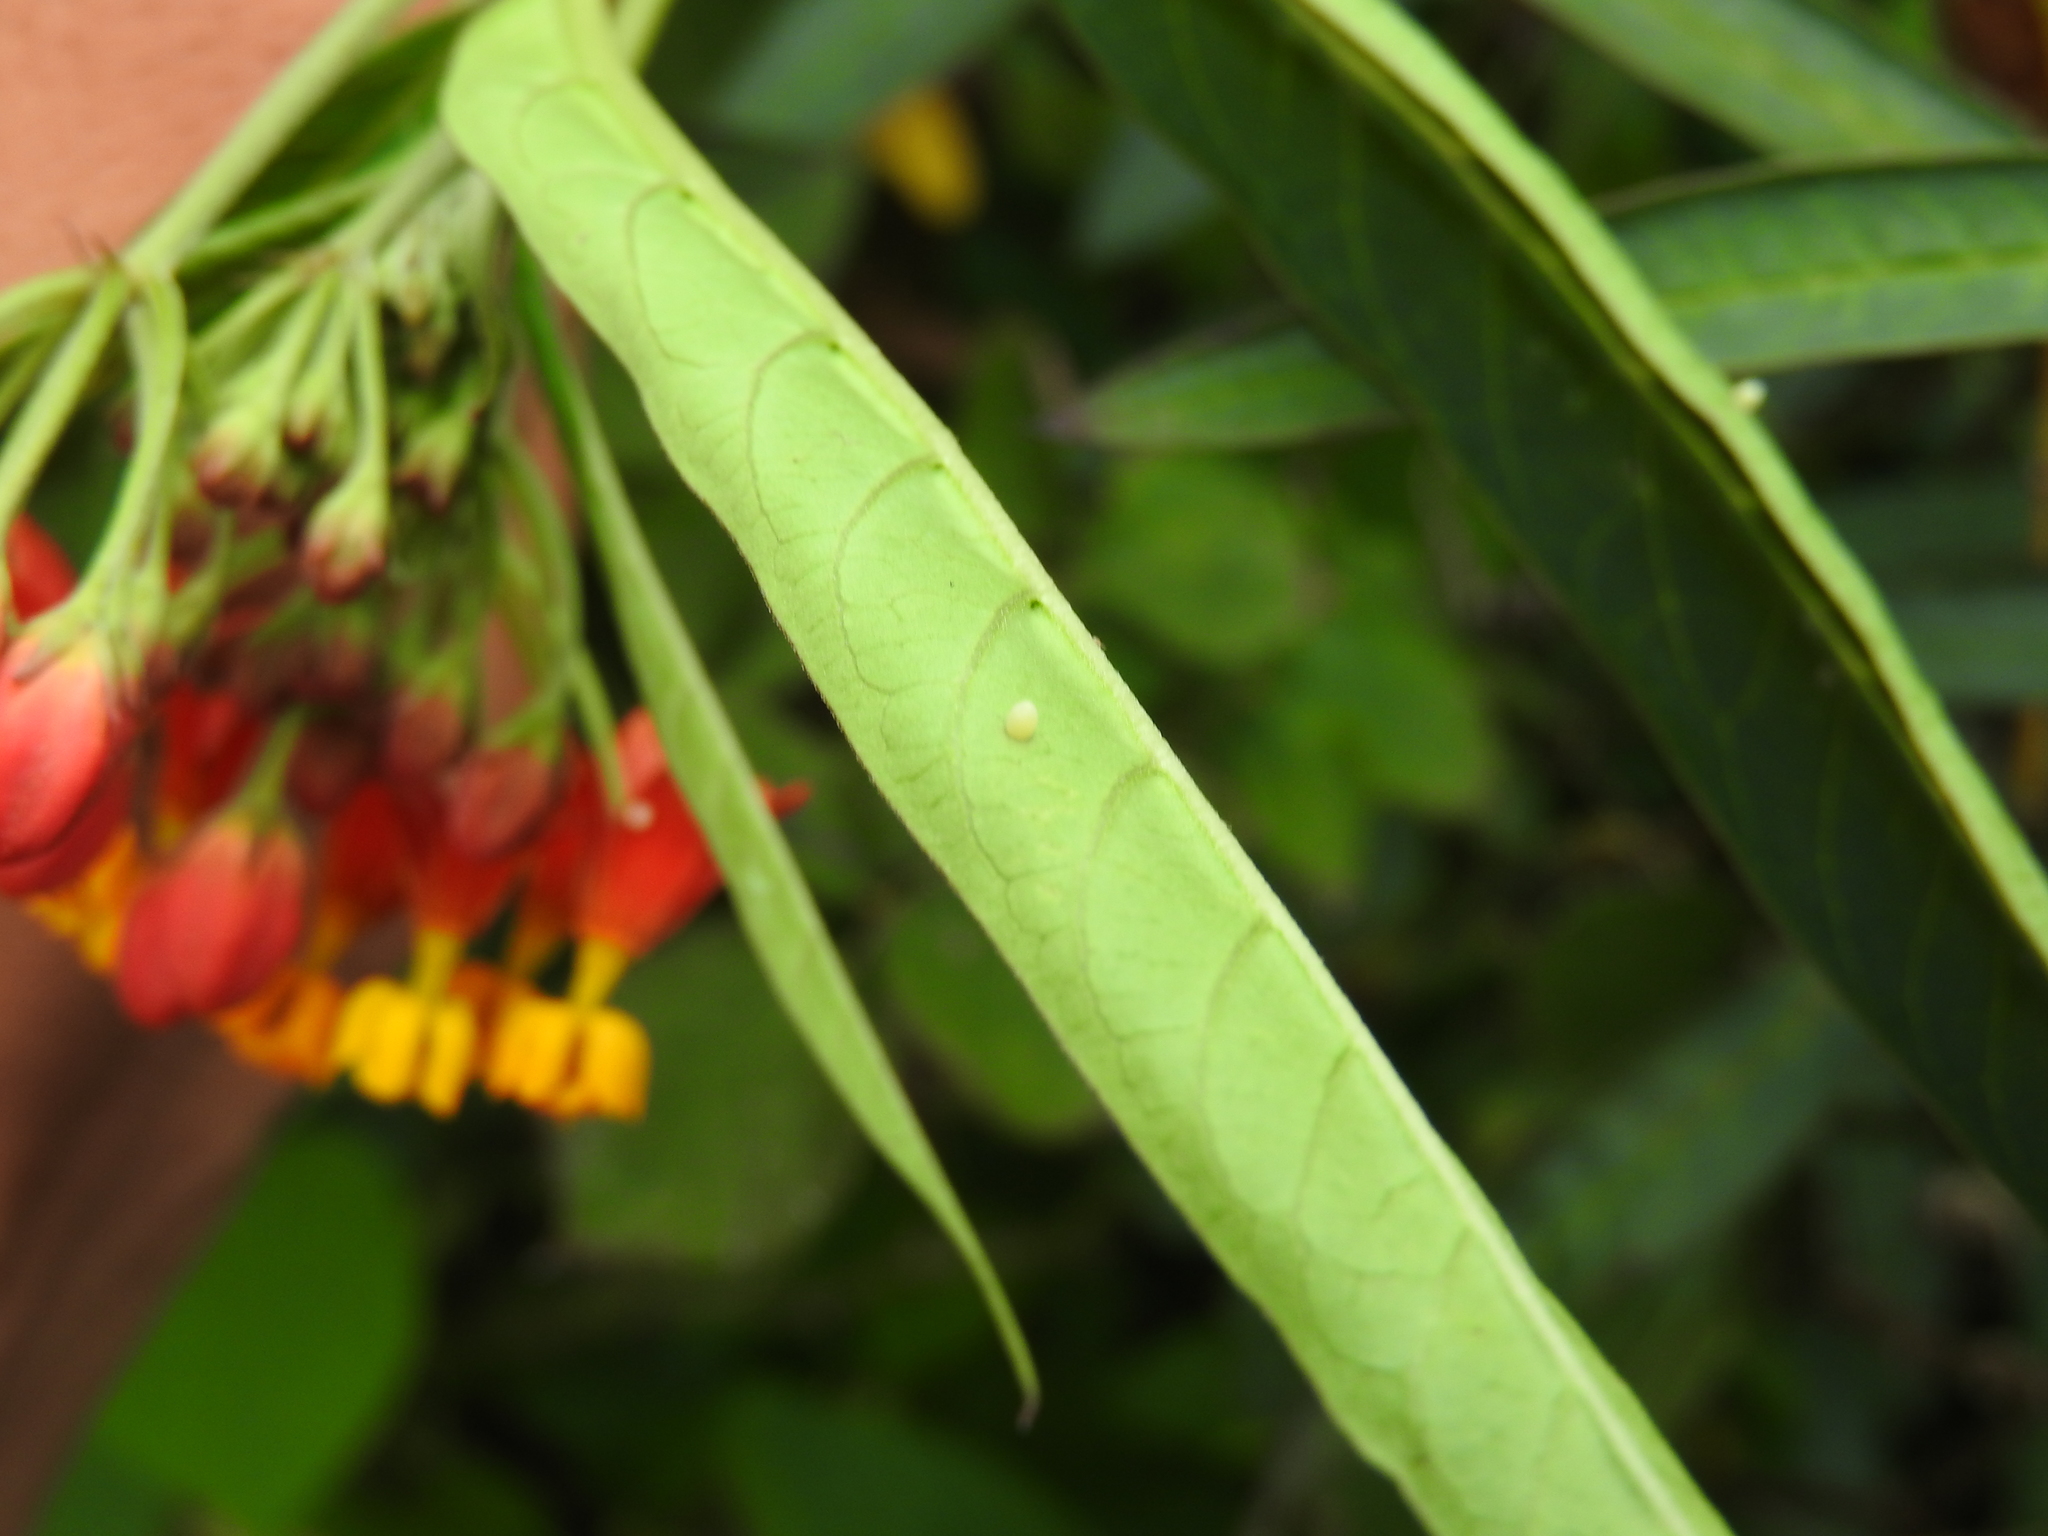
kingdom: Animalia
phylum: Arthropoda
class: Insecta
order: Lepidoptera
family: Nymphalidae
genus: Danaus
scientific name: Danaus plexippus
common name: Monarch
